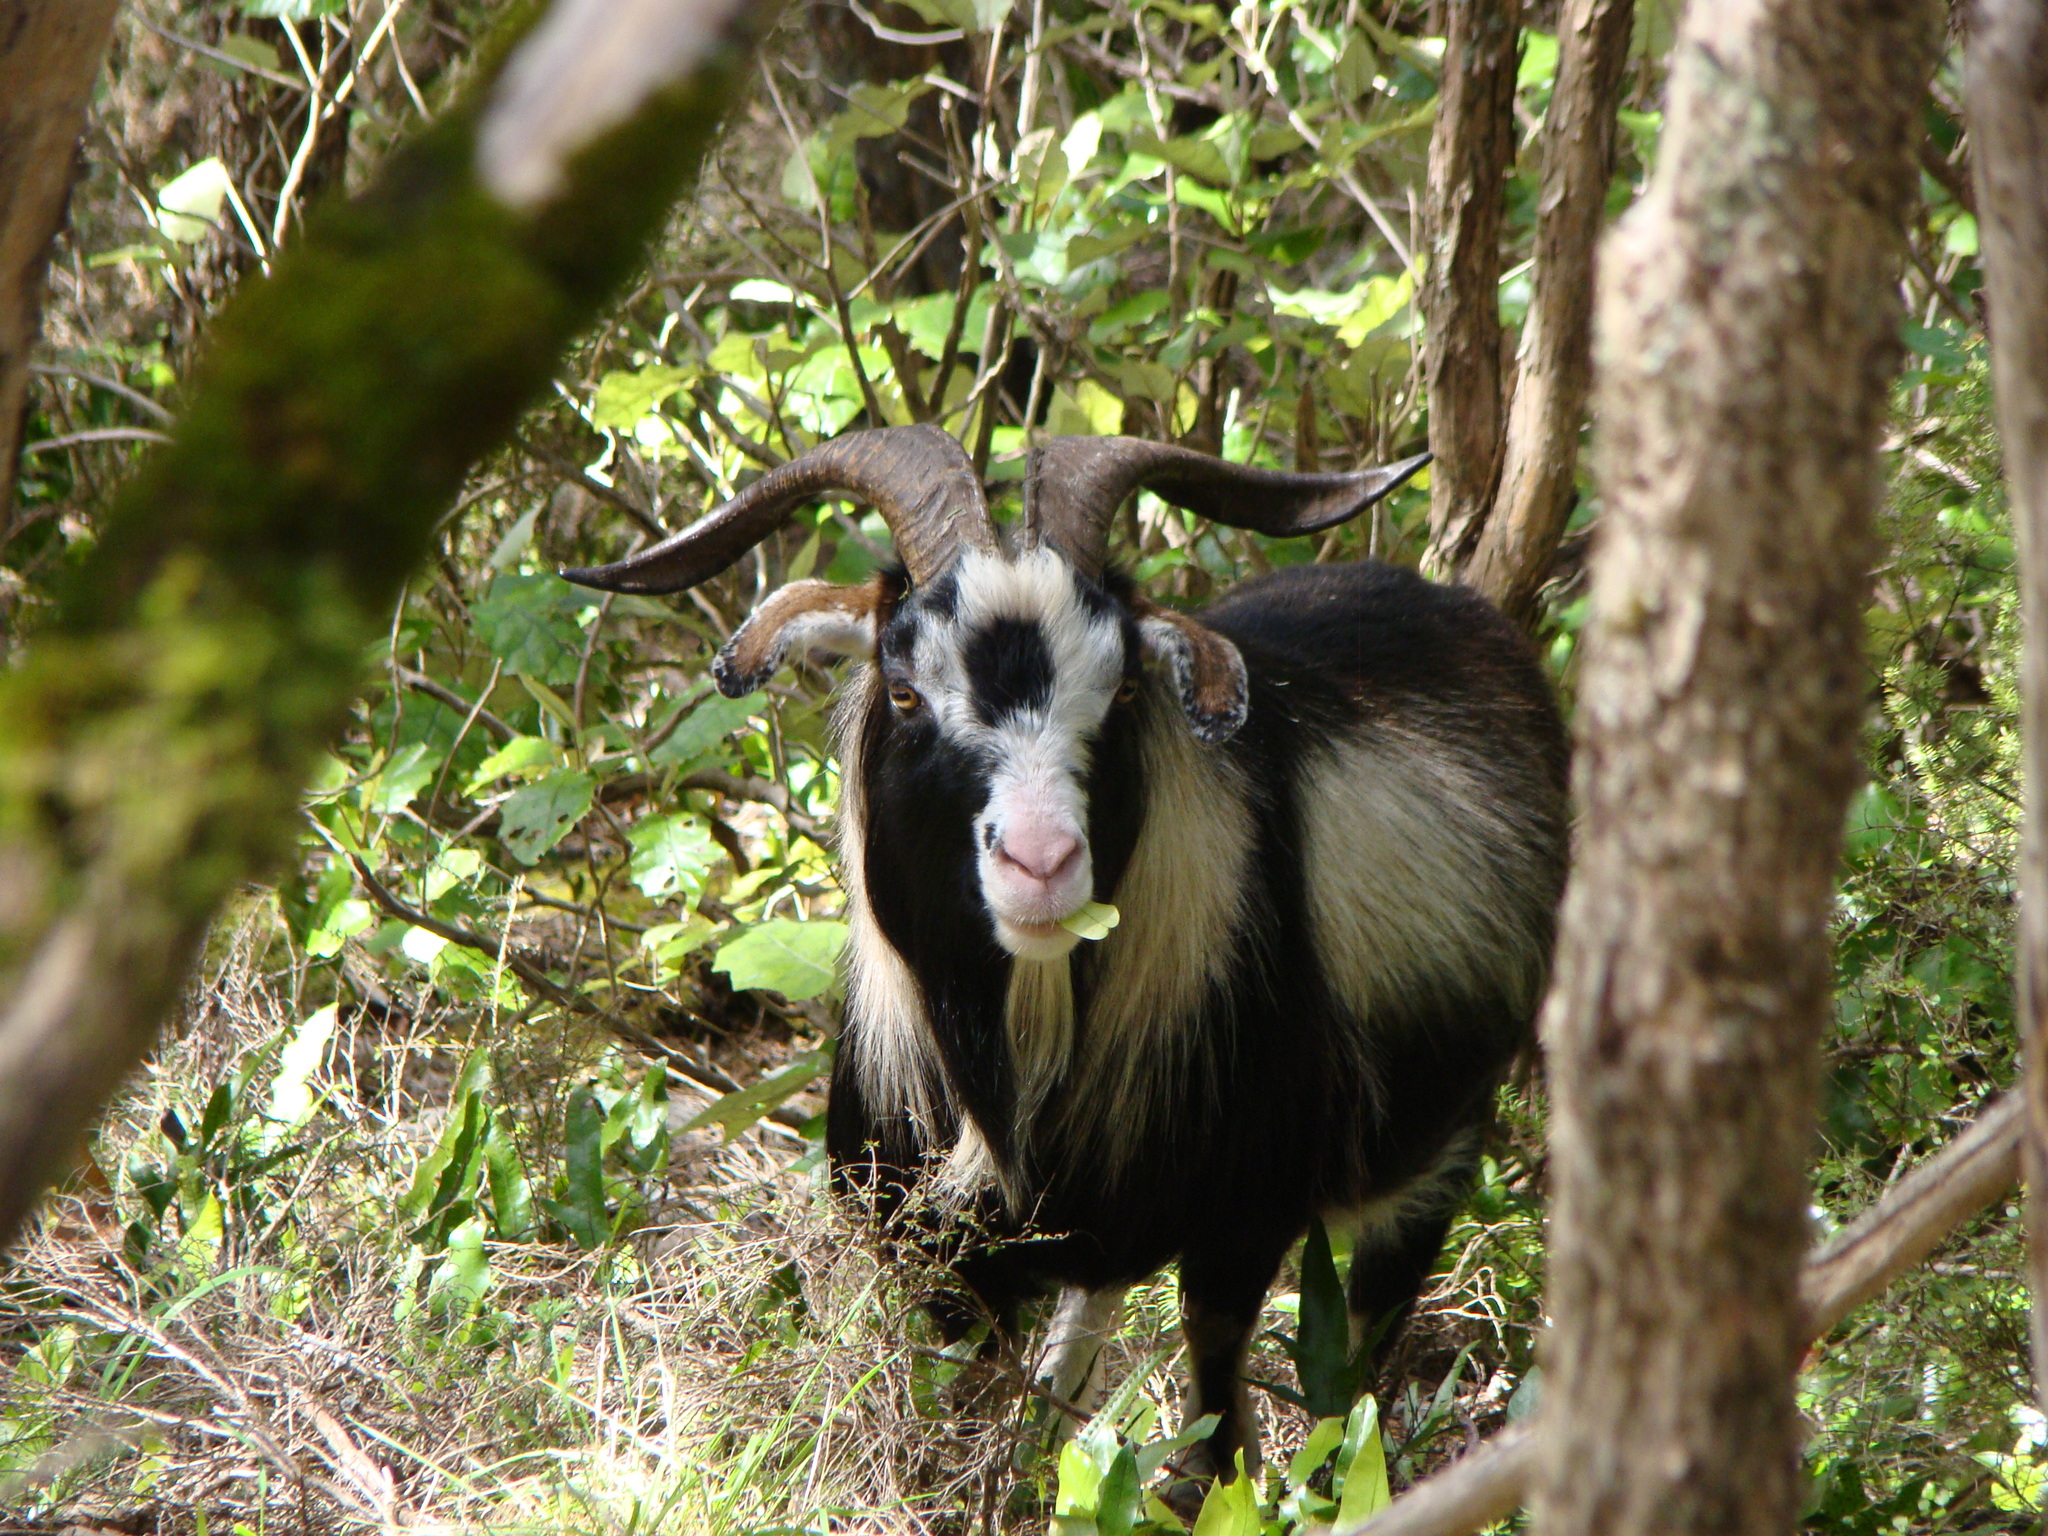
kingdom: Animalia
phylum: Chordata
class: Mammalia
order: Artiodactyla
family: Bovidae
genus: Capra
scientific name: Capra hircus
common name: Domestic goat
